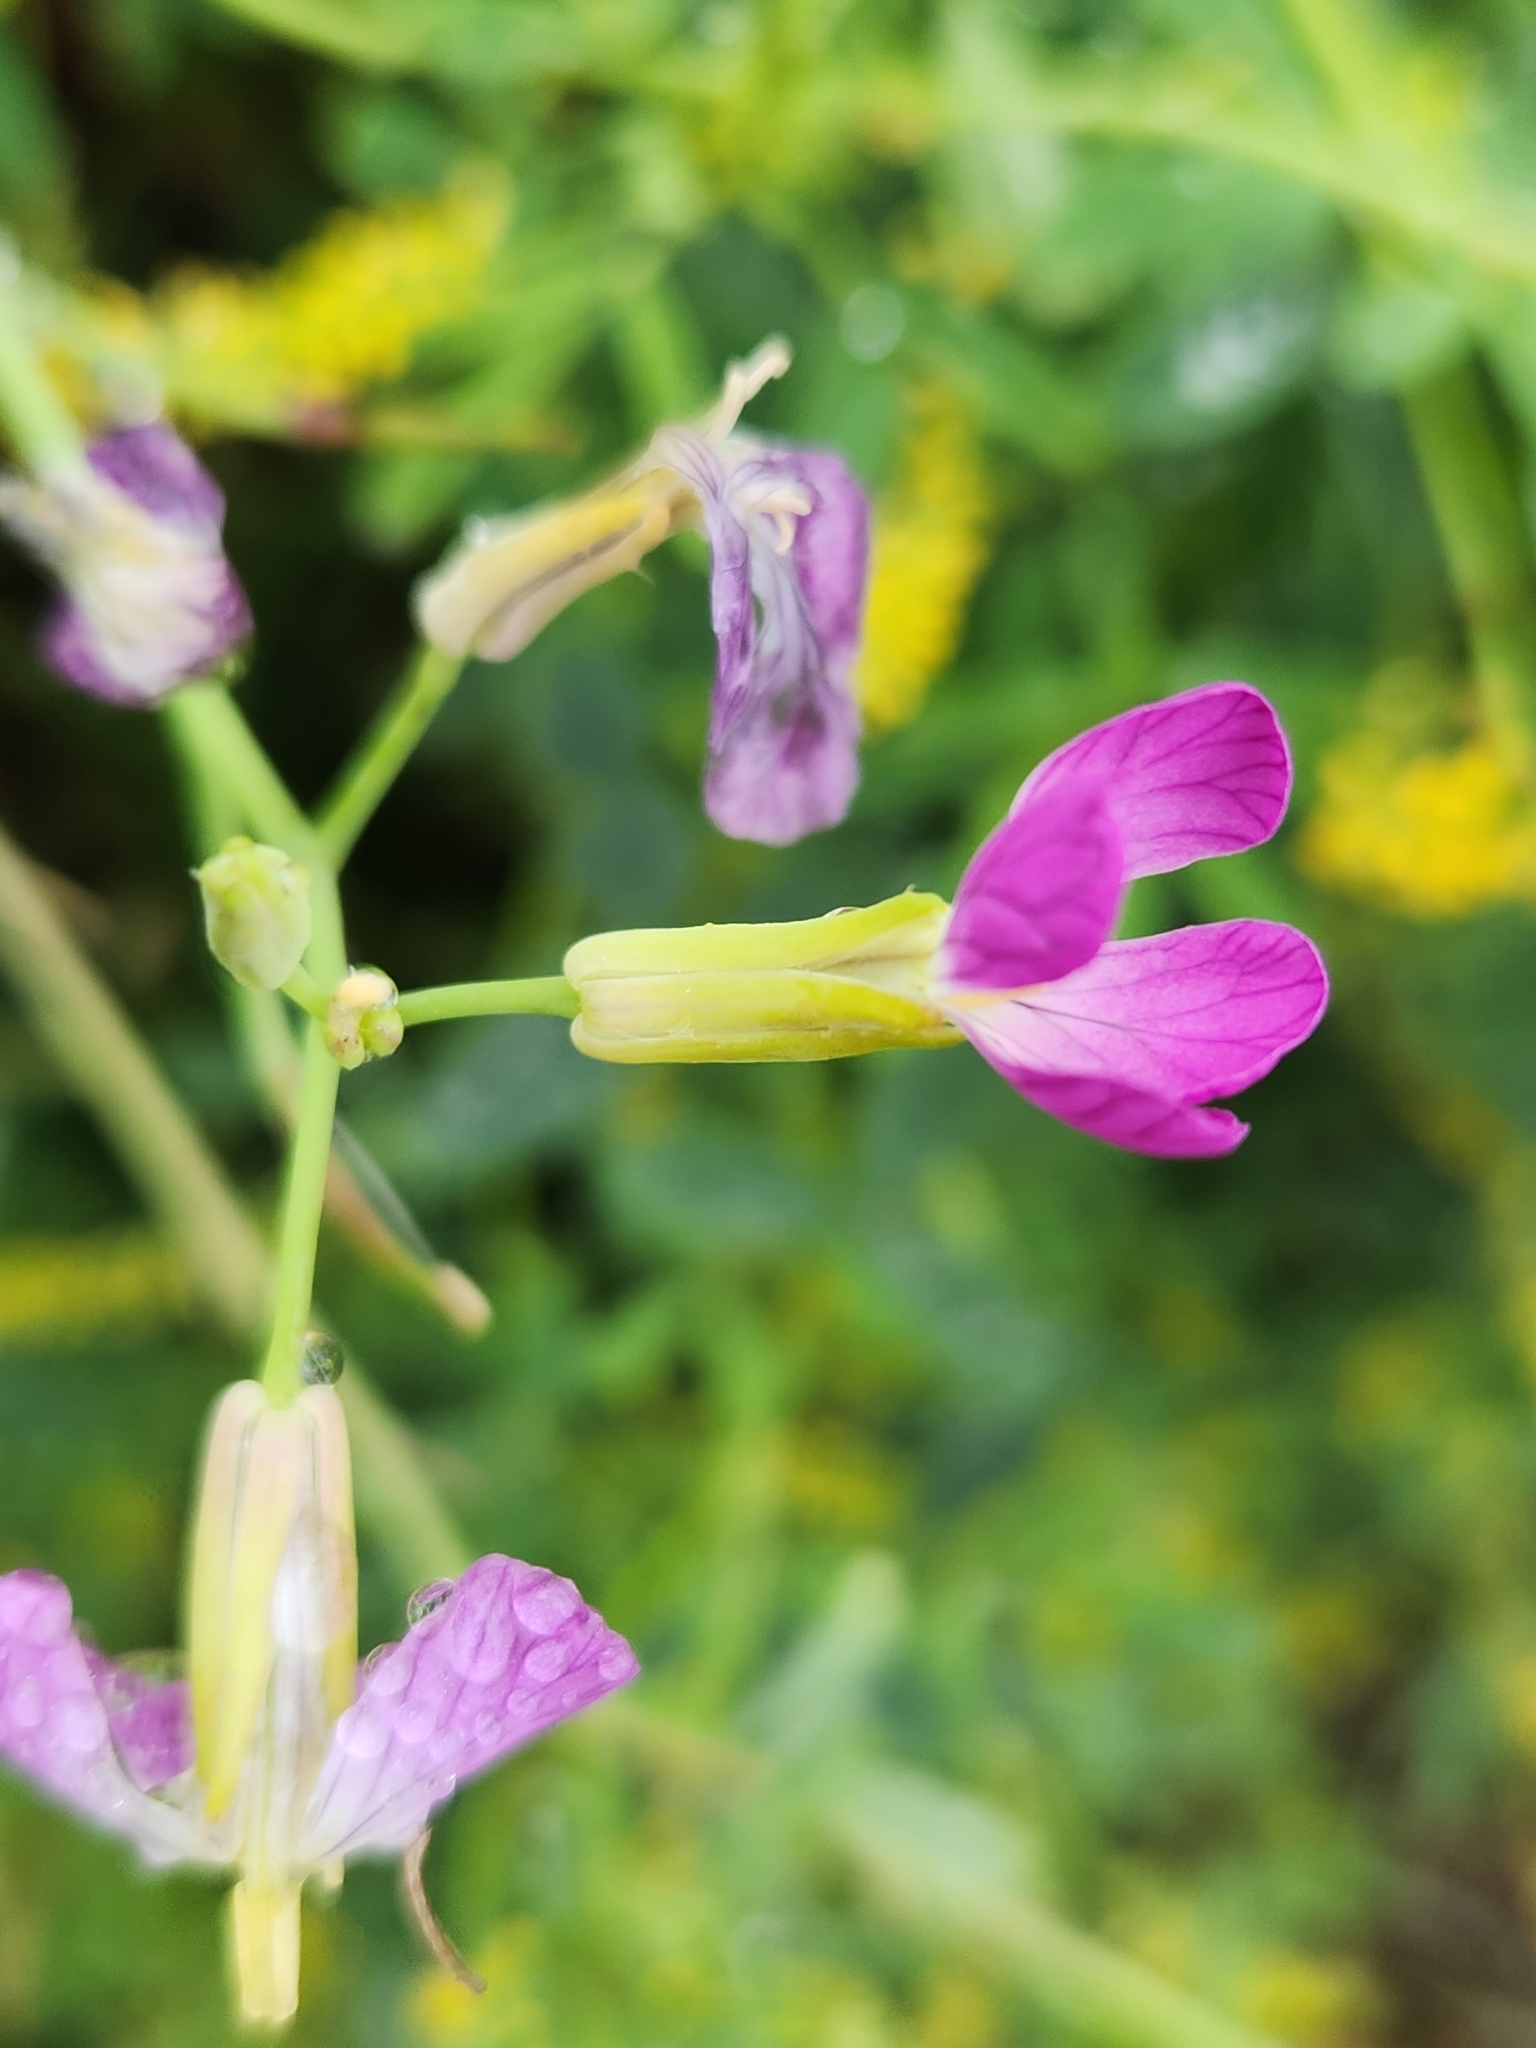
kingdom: Plantae
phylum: Tracheophyta
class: Magnoliopsida
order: Brassicales
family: Brassicaceae
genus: Raphanus
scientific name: Raphanus sativus
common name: Cultivated radish
